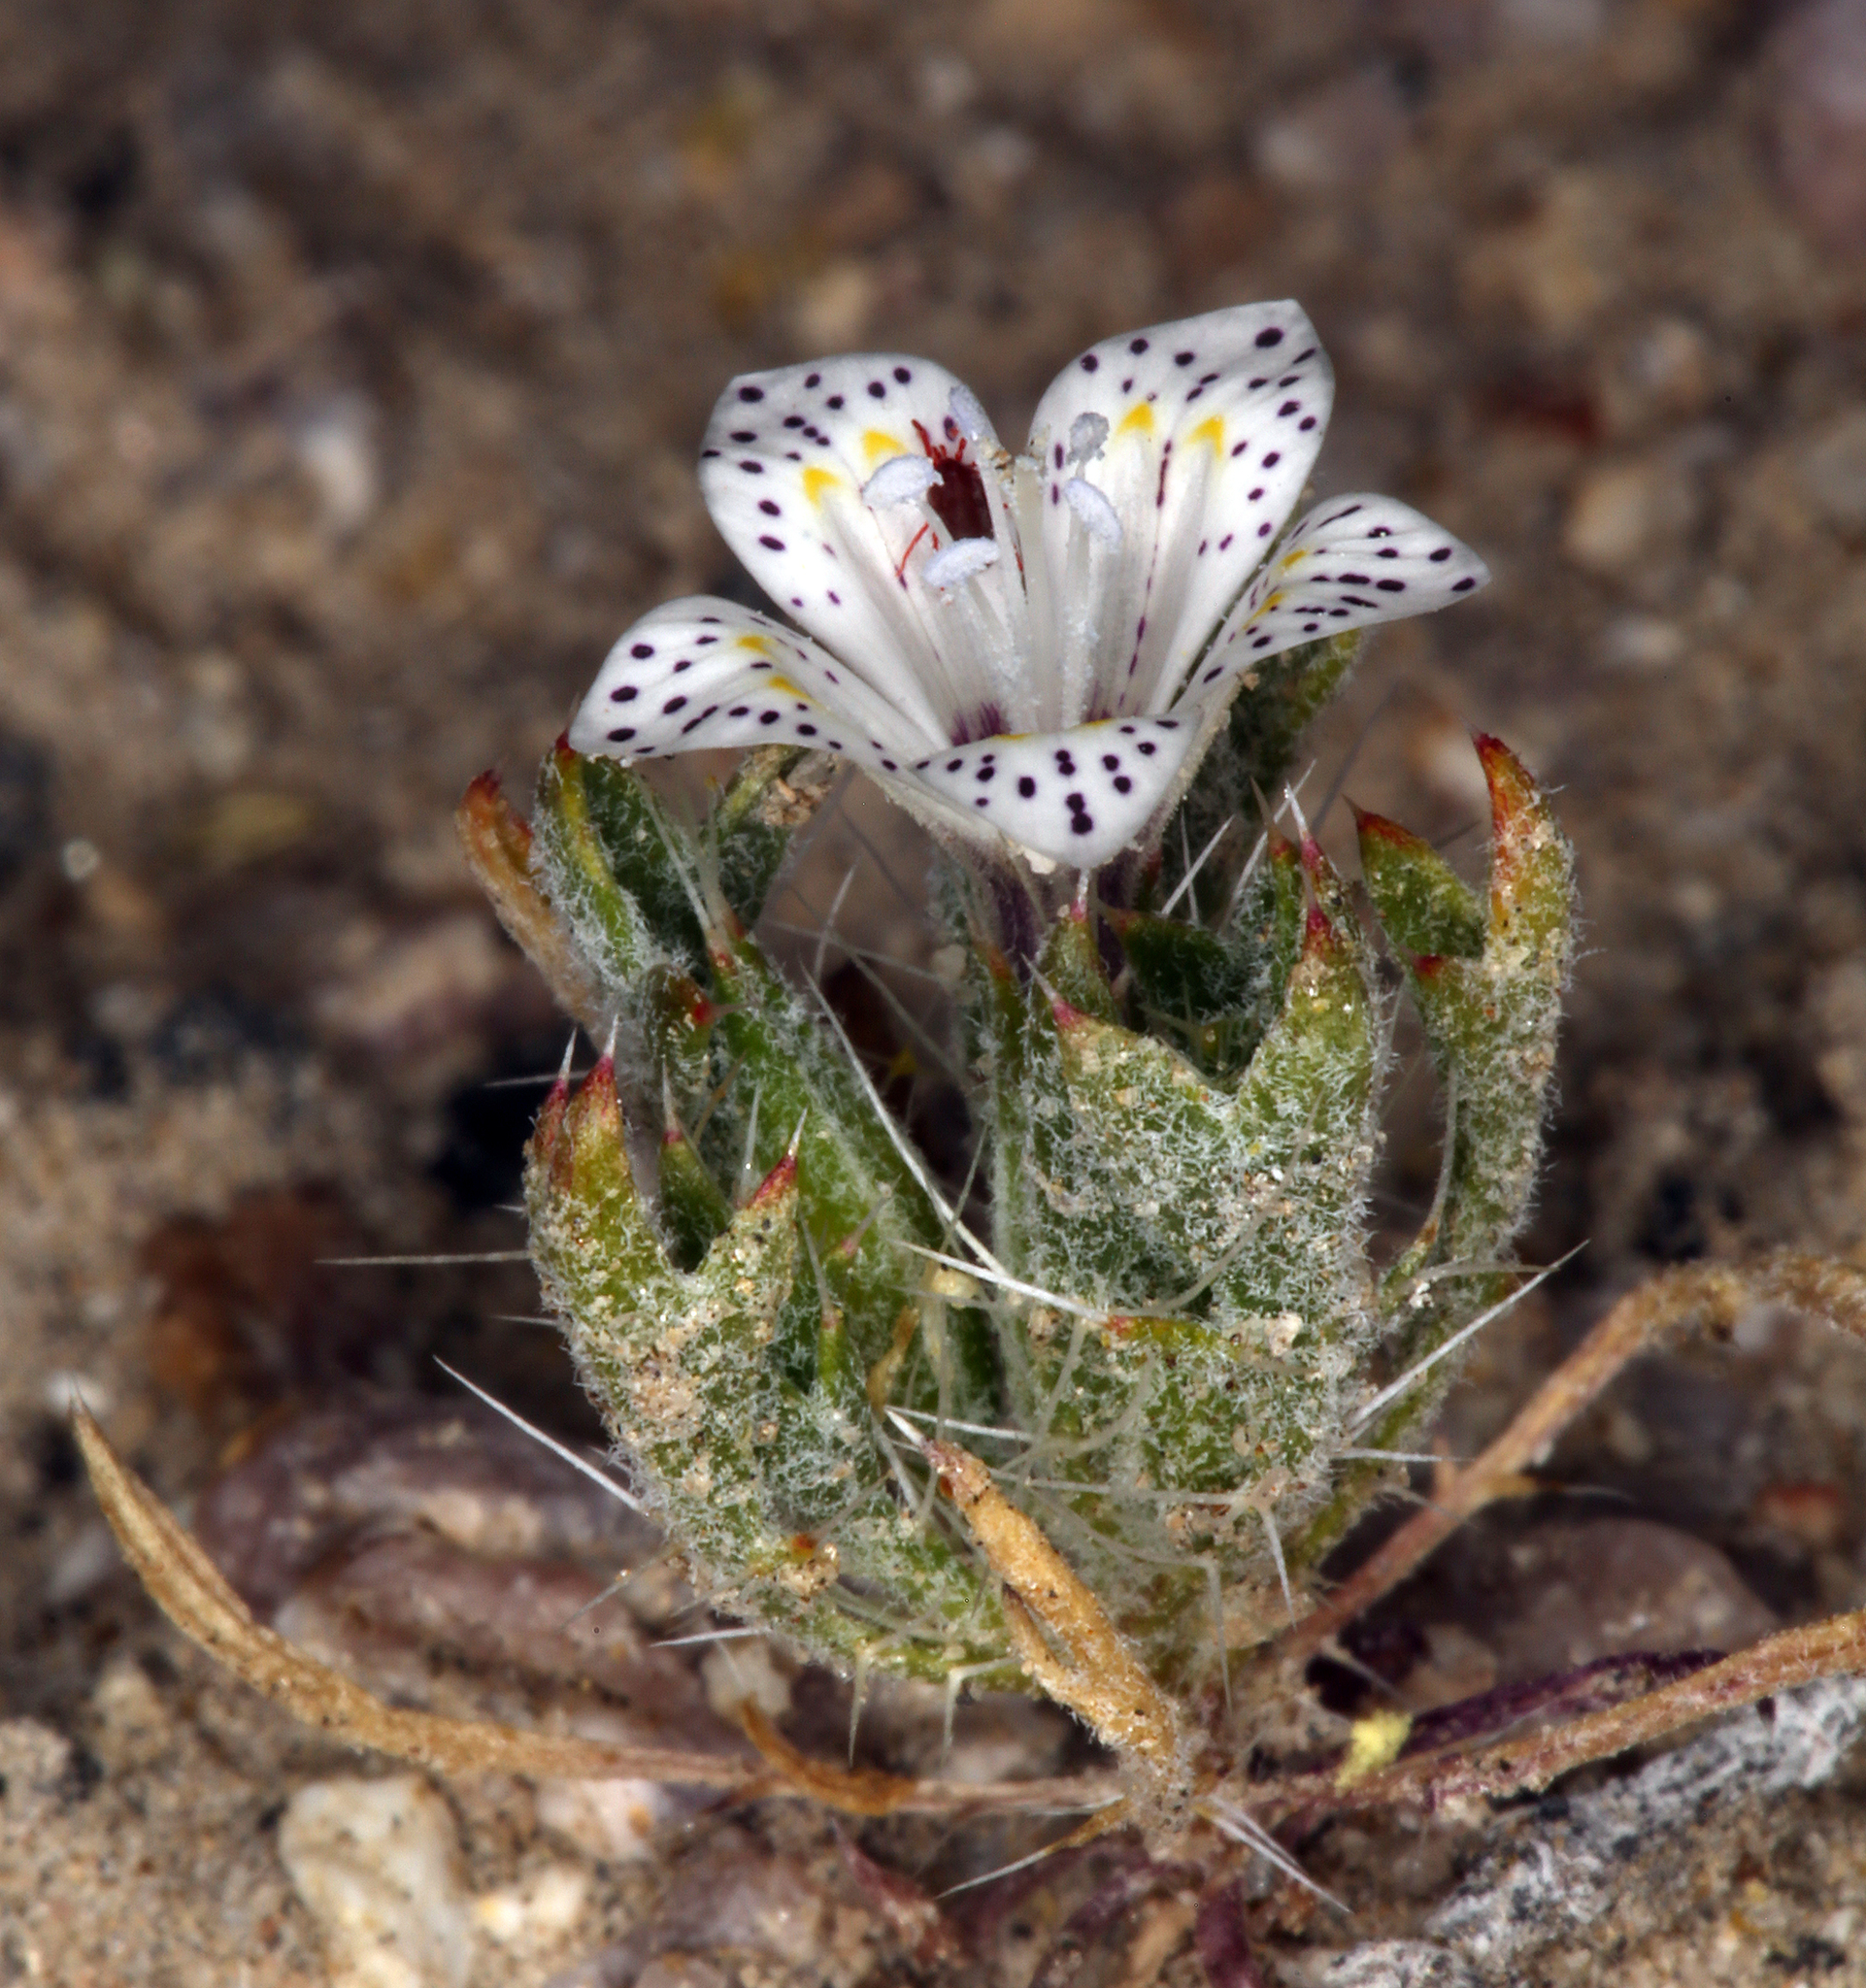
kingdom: Plantae
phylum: Tracheophyta
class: Magnoliopsida
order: Ericales
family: Polemoniaceae
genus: Langloisia
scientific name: Langloisia setosissima
